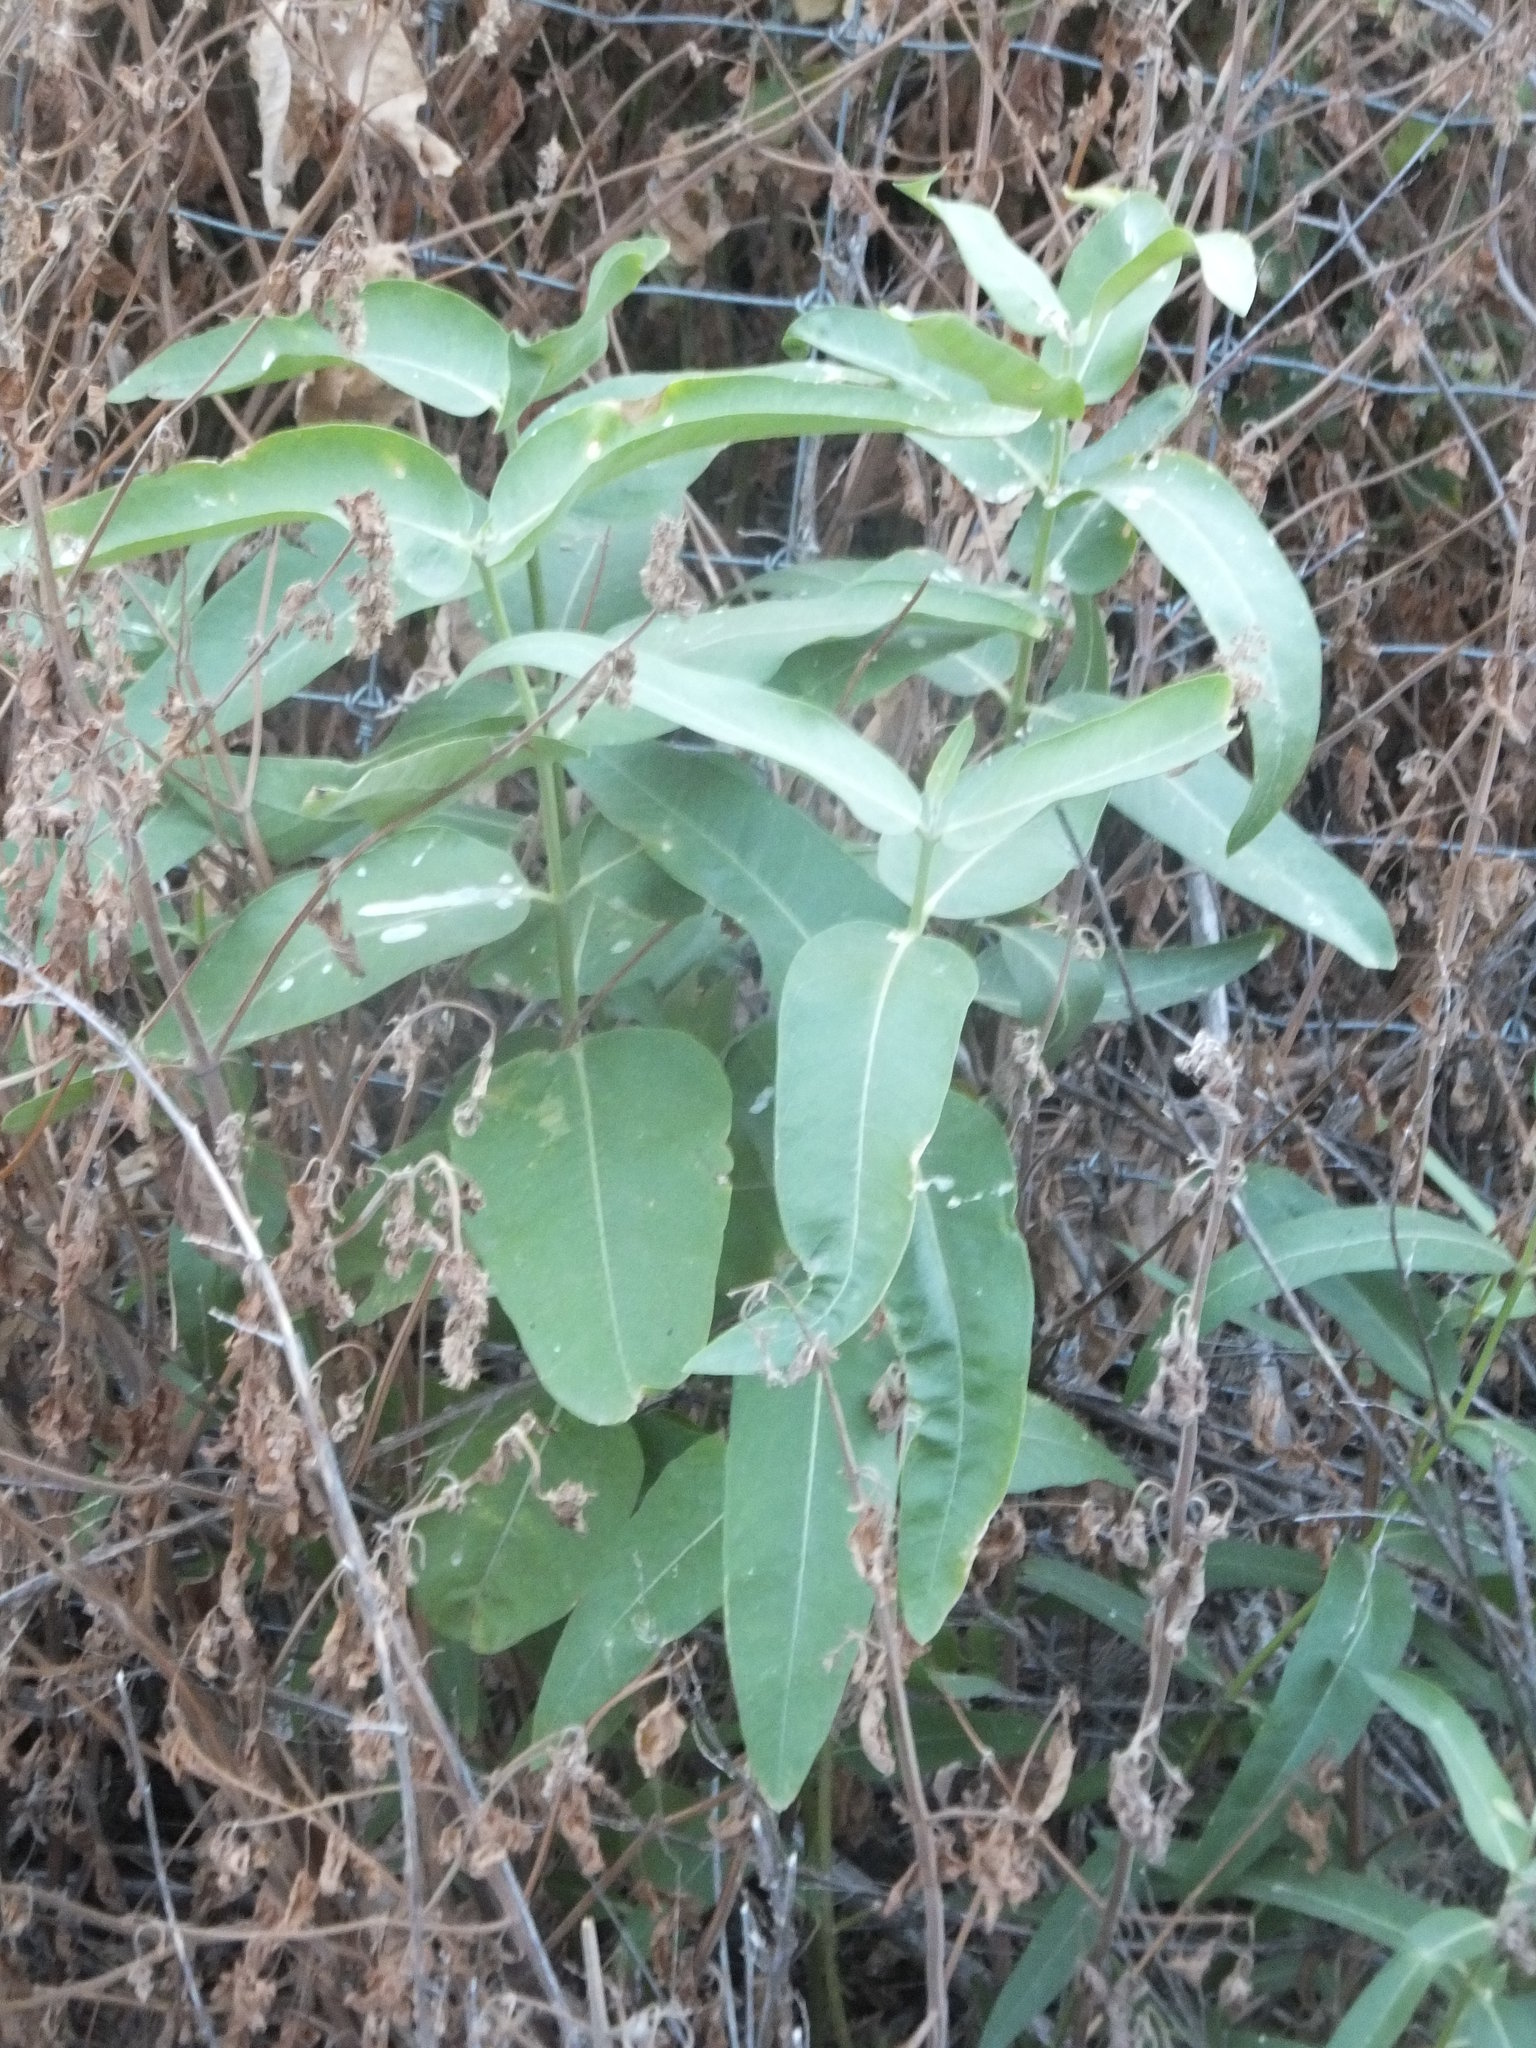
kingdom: Plantae
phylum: Tracheophyta
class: Magnoliopsida
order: Gentianales
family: Apocynaceae
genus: Asclepias
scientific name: Asclepias speciosa
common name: Showy milkweed
